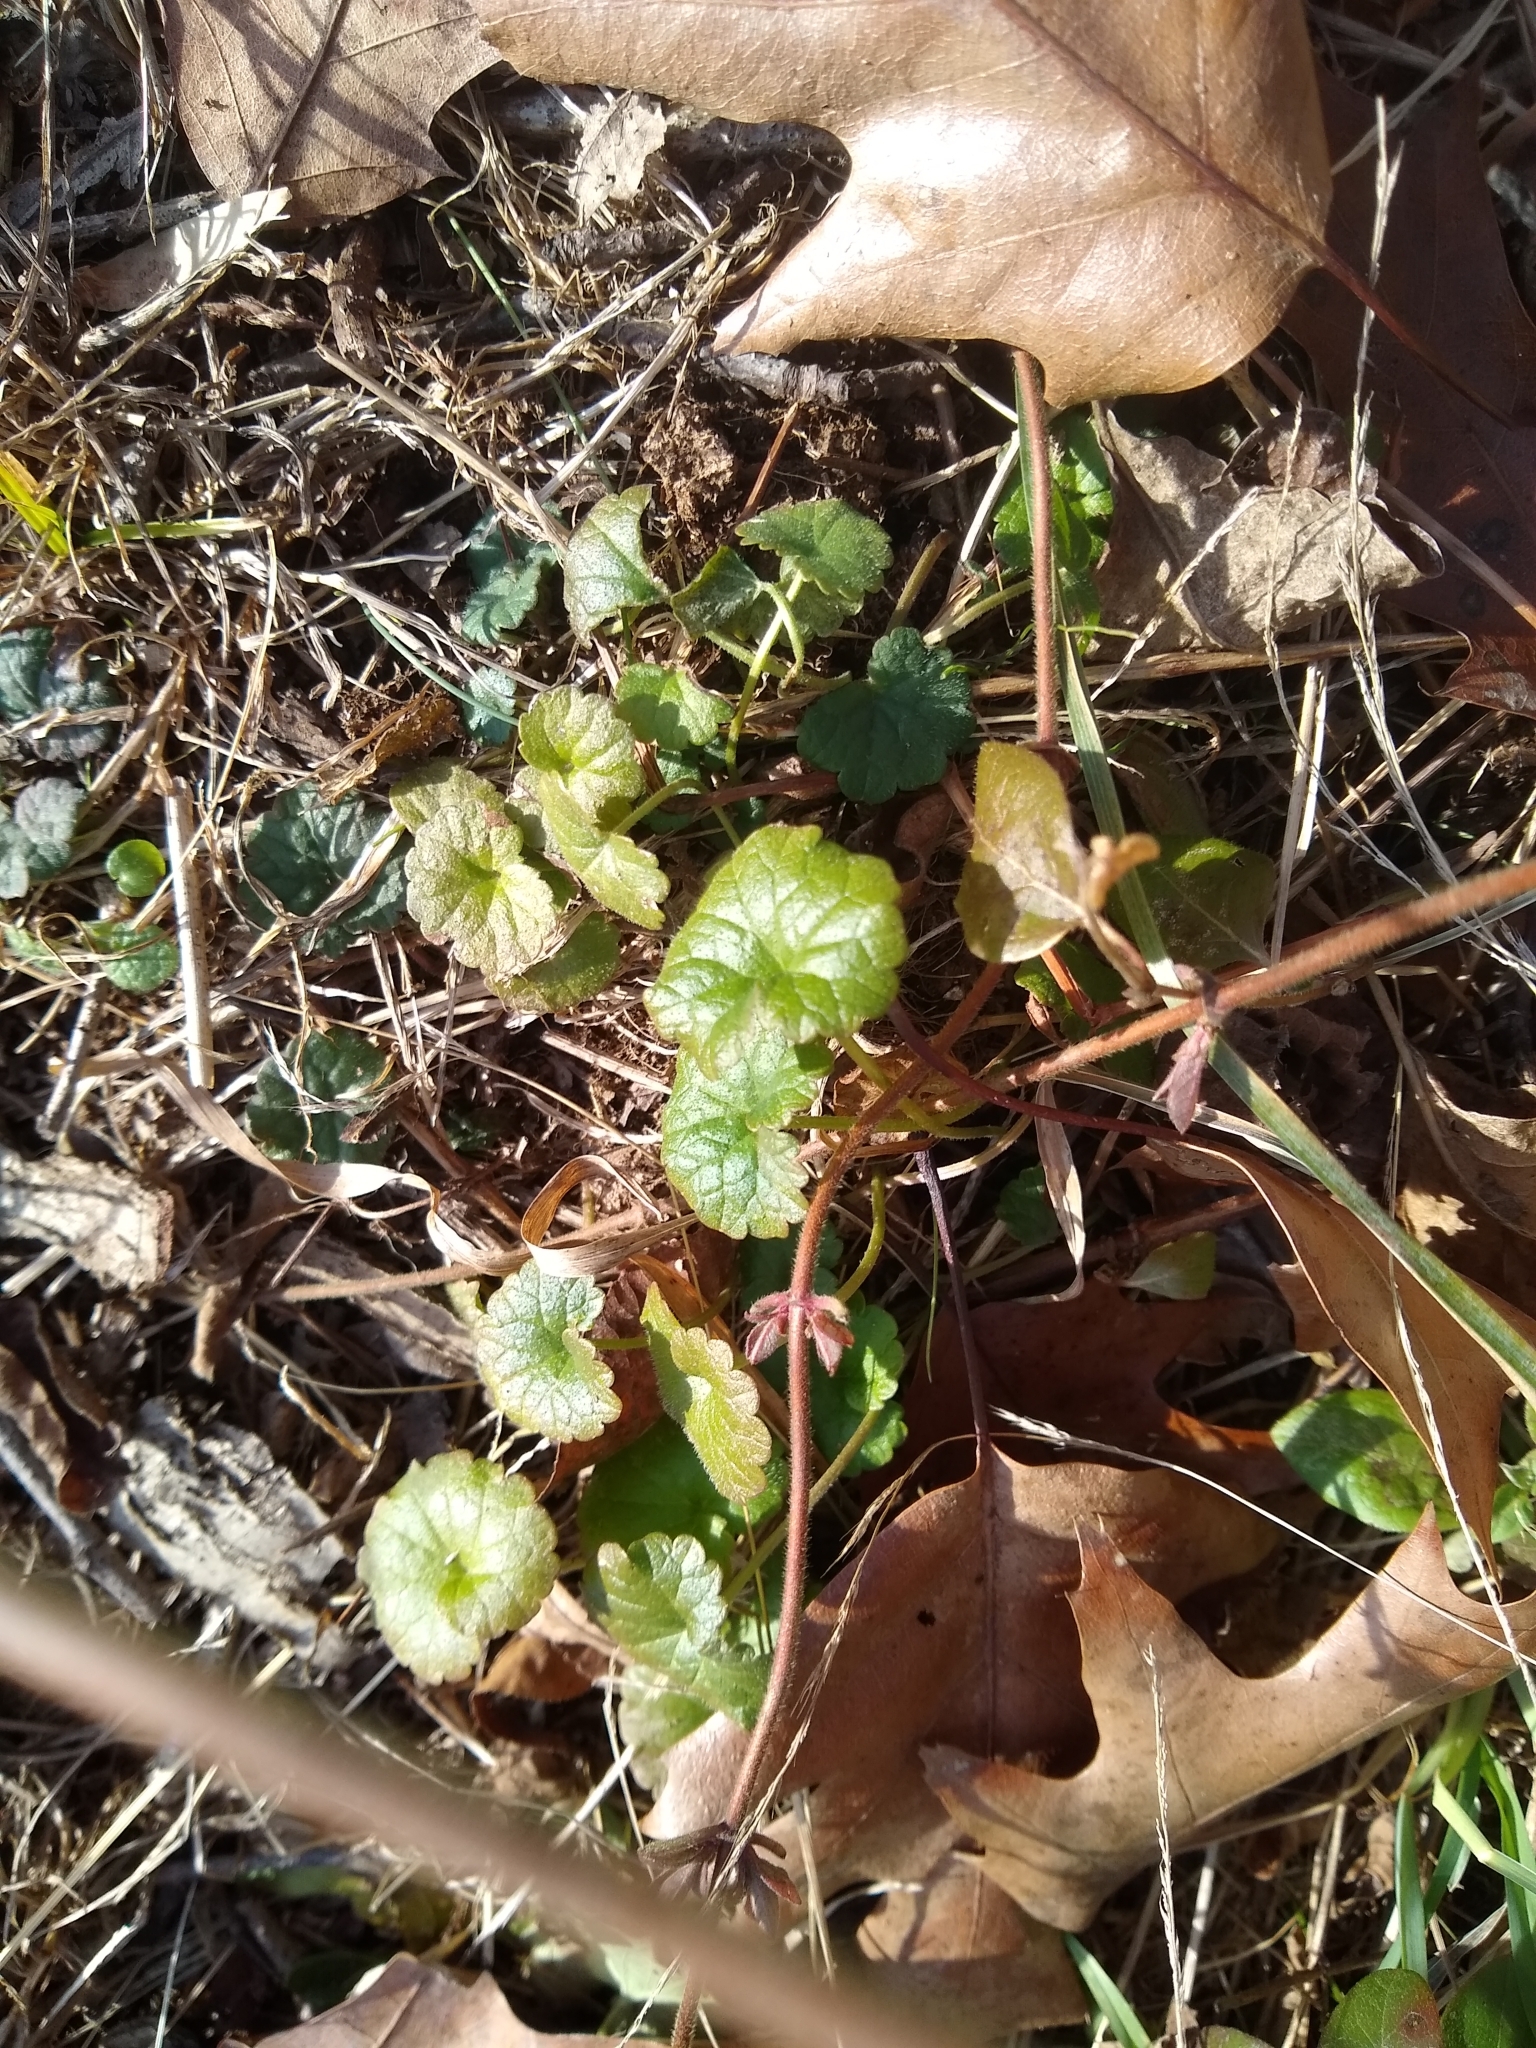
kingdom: Plantae
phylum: Tracheophyta
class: Magnoliopsida
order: Lamiales
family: Lamiaceae
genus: Glechoma
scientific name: Glechoma hederacea
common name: Ground ivy
